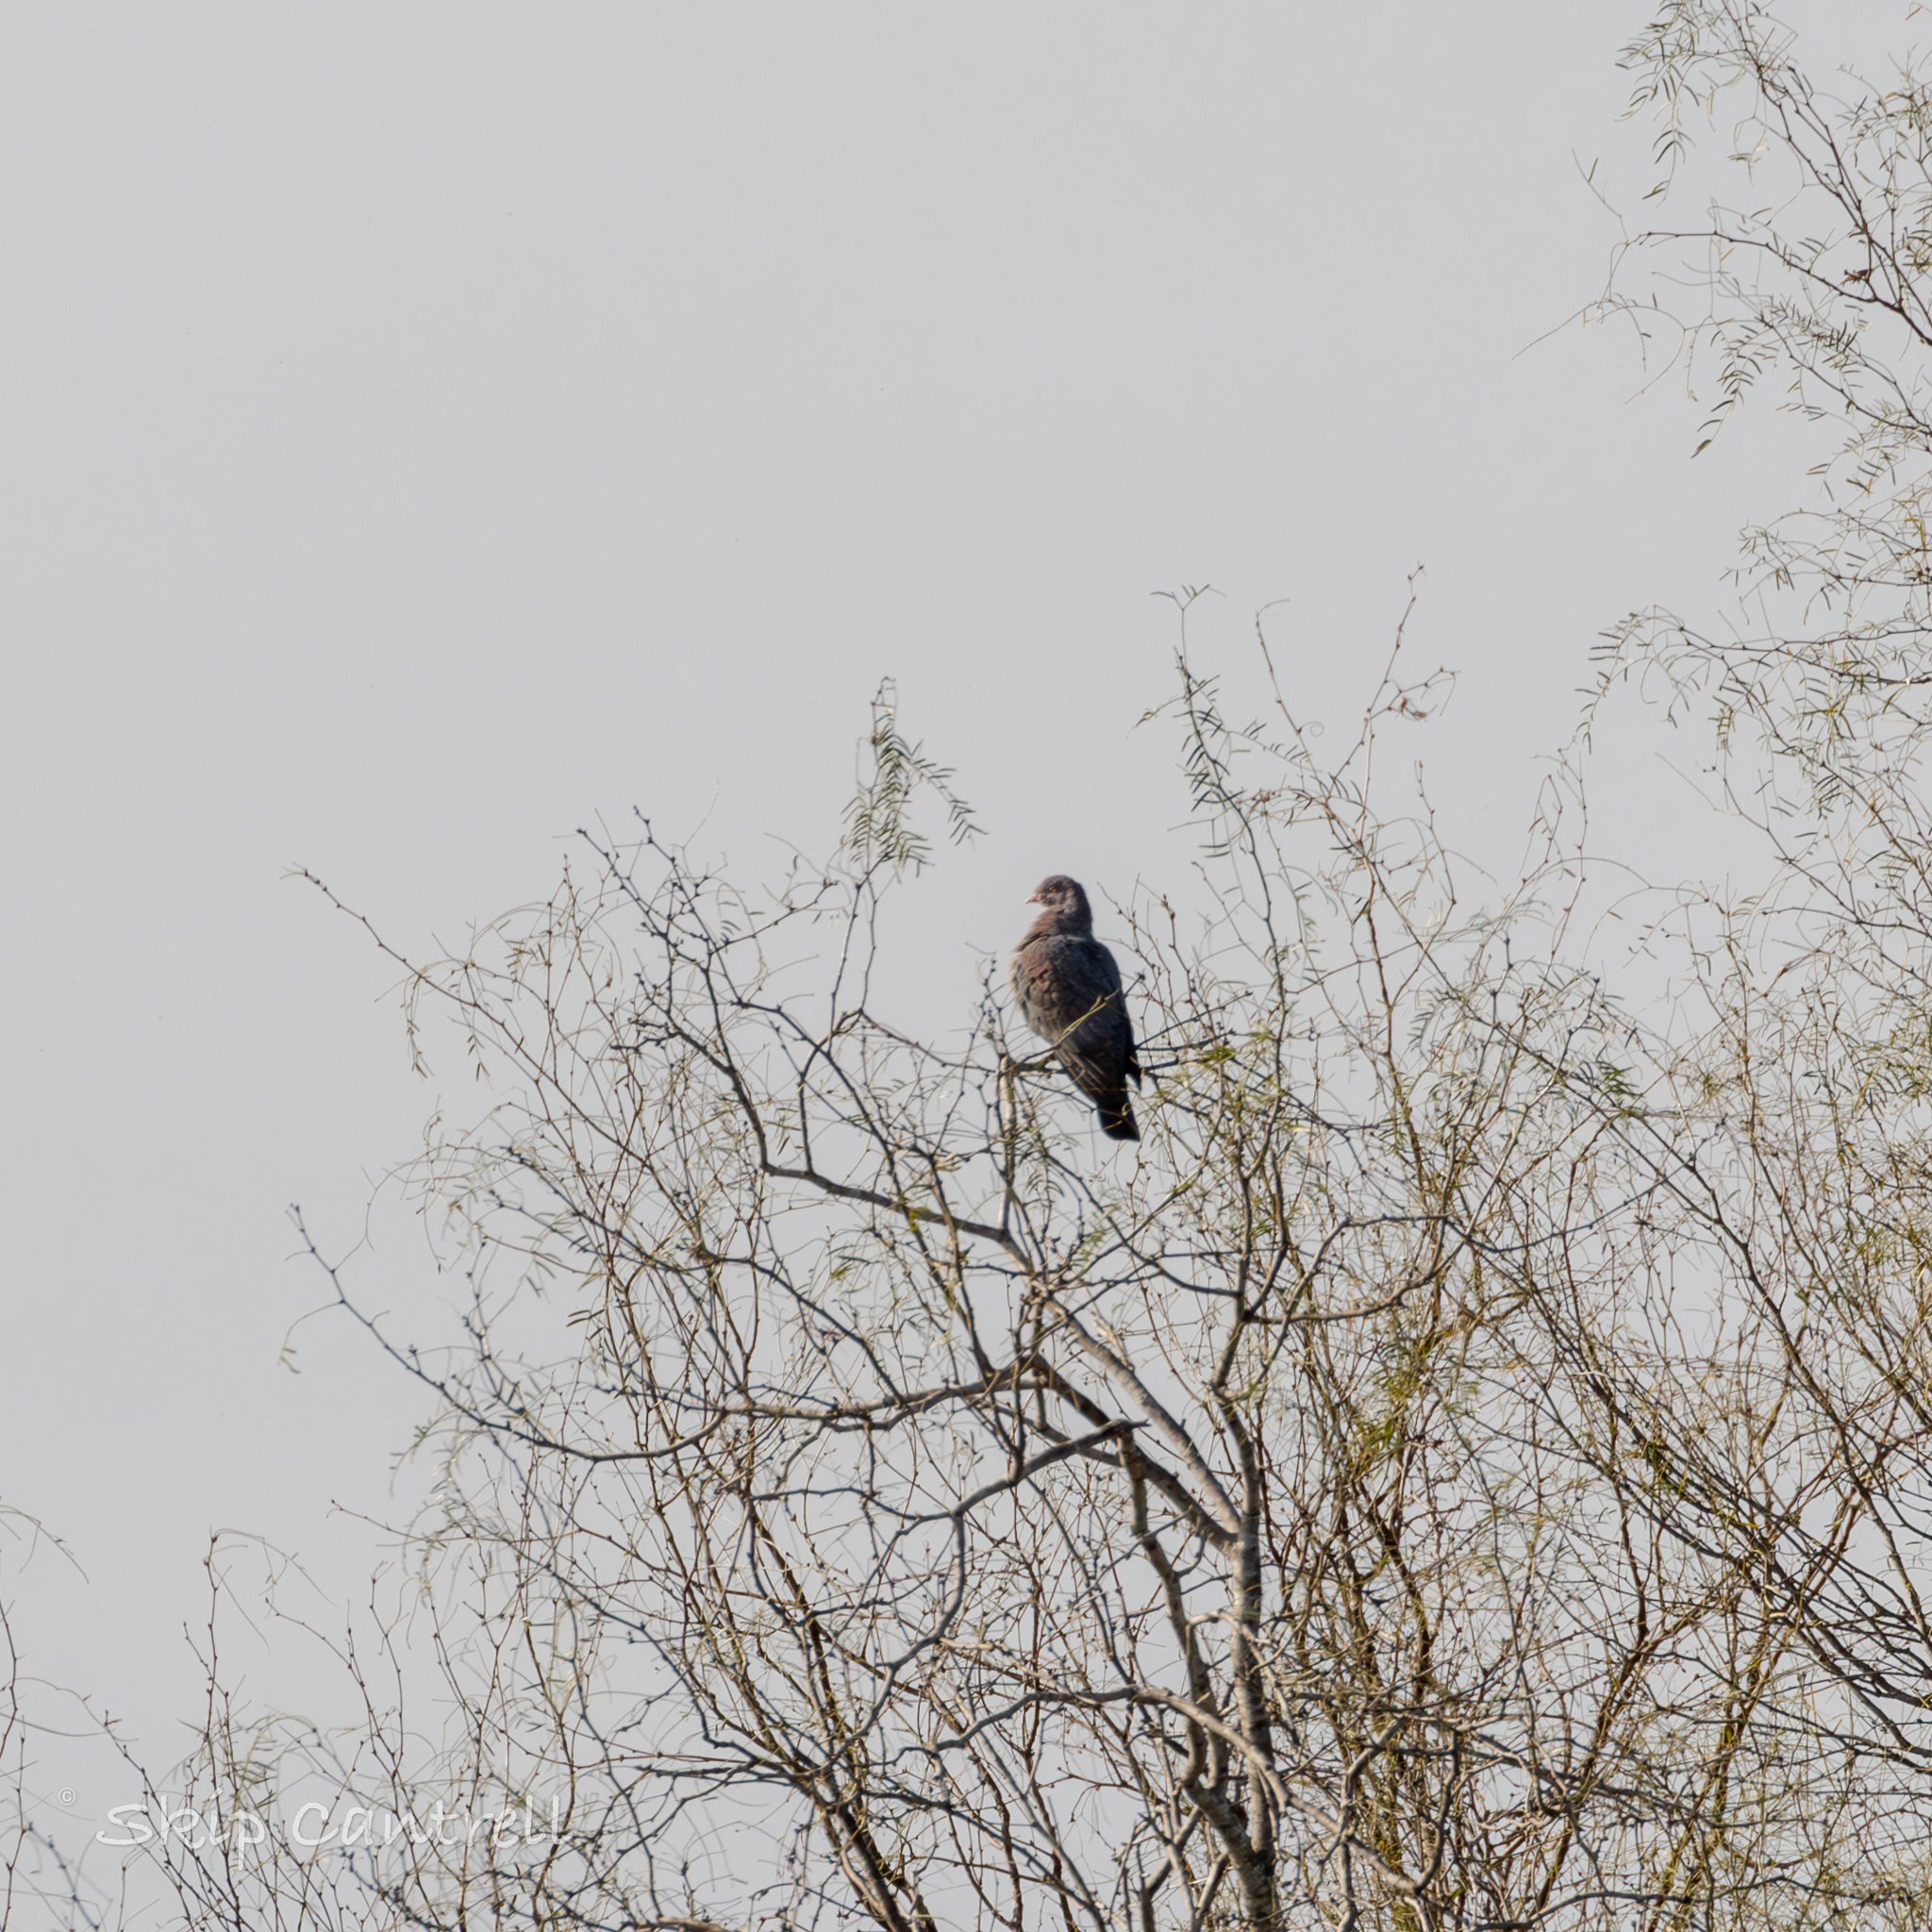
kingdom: Animalia
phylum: Chordata
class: Aves
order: Columbiformes
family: Columbidae
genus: Patagioenas
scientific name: Patagioenas flavirostris
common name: Red-billed pigeon
